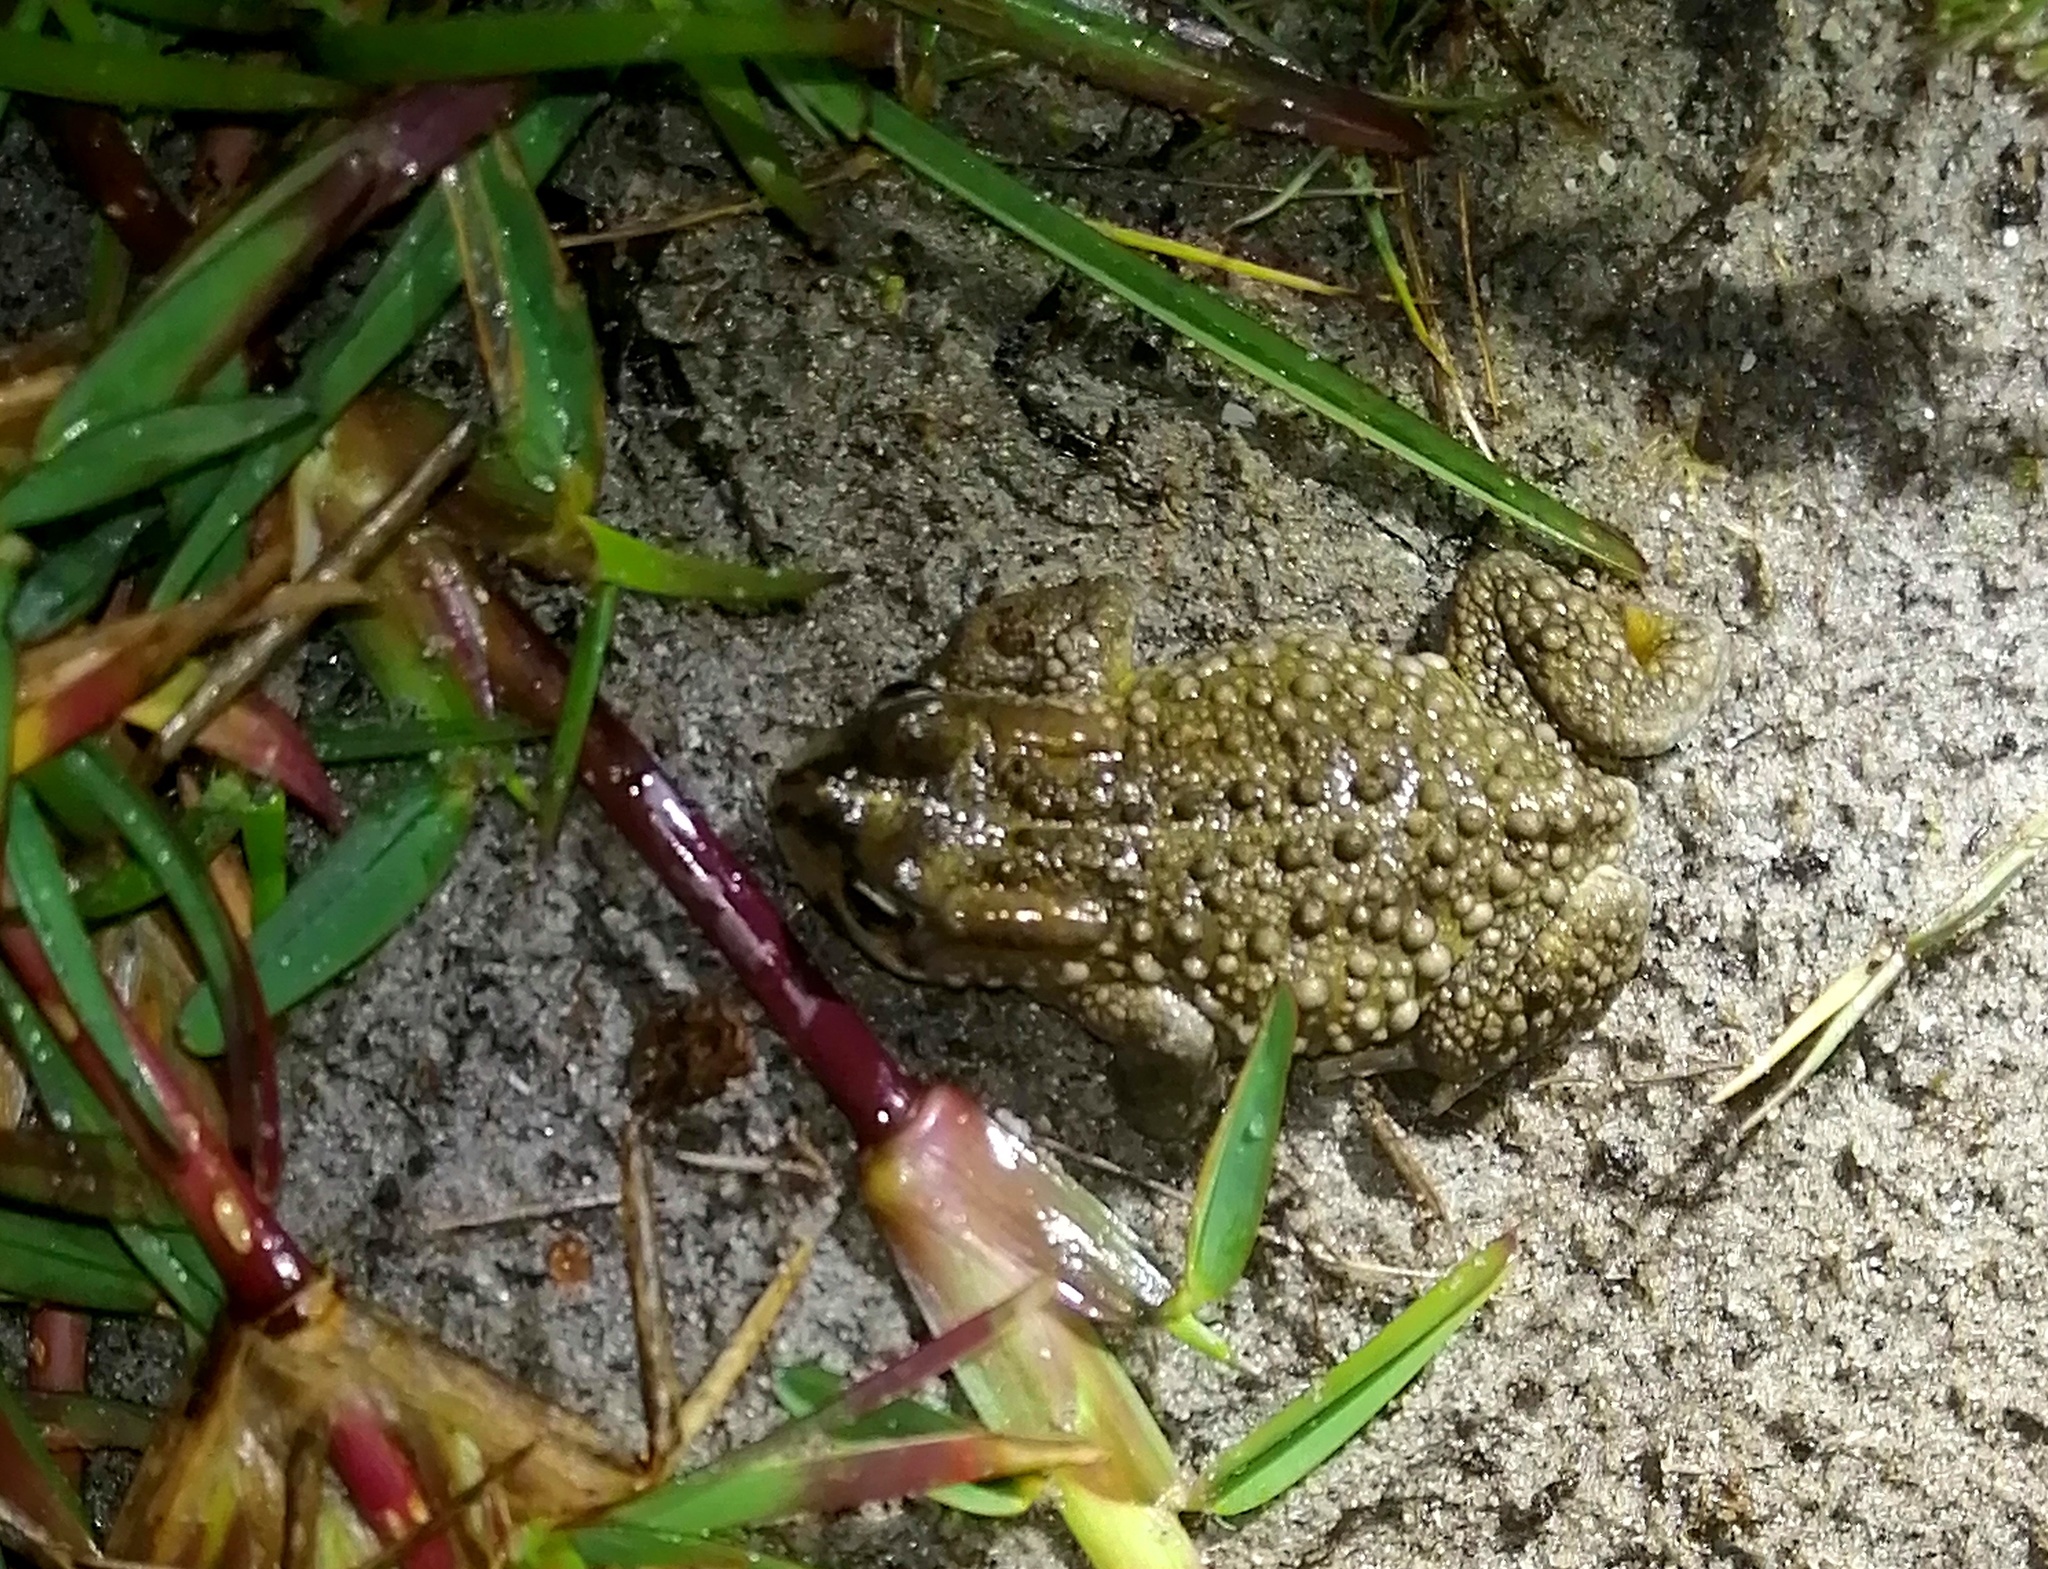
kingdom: Animalia
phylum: Chordata
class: Amphibia
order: Anura
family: Bufonidae
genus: Vandijkophrynus
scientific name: Vandijkophrynus angusticeps
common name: Sand toad
